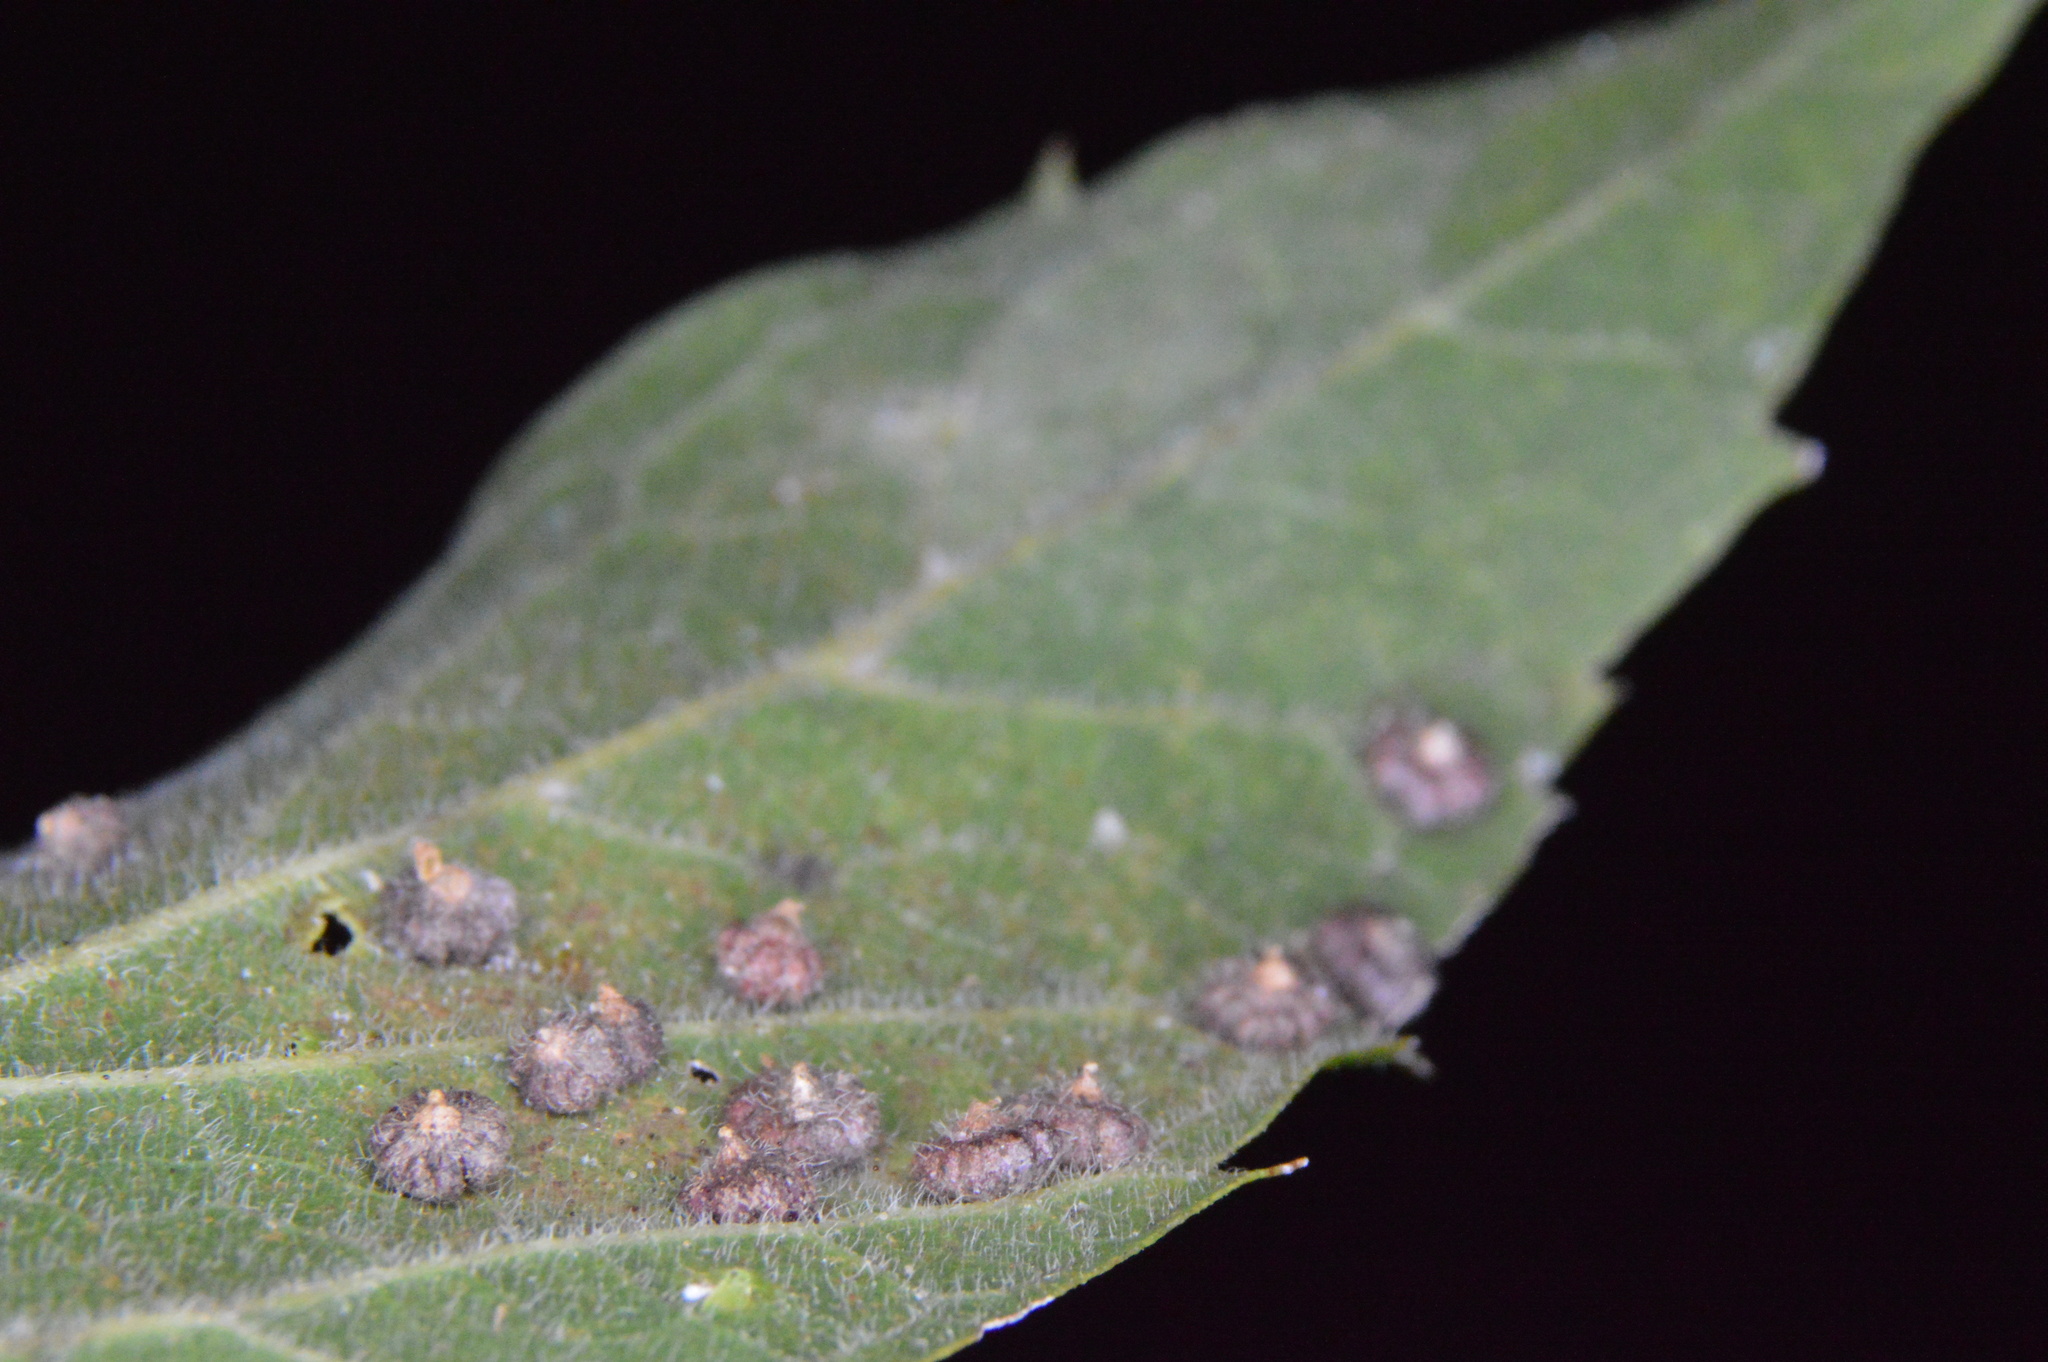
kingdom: Animalia
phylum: Arthropoda
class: Insecta
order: Diptera
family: Cecidomyiidae
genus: Celticecis
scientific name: Celticecis capsularis
